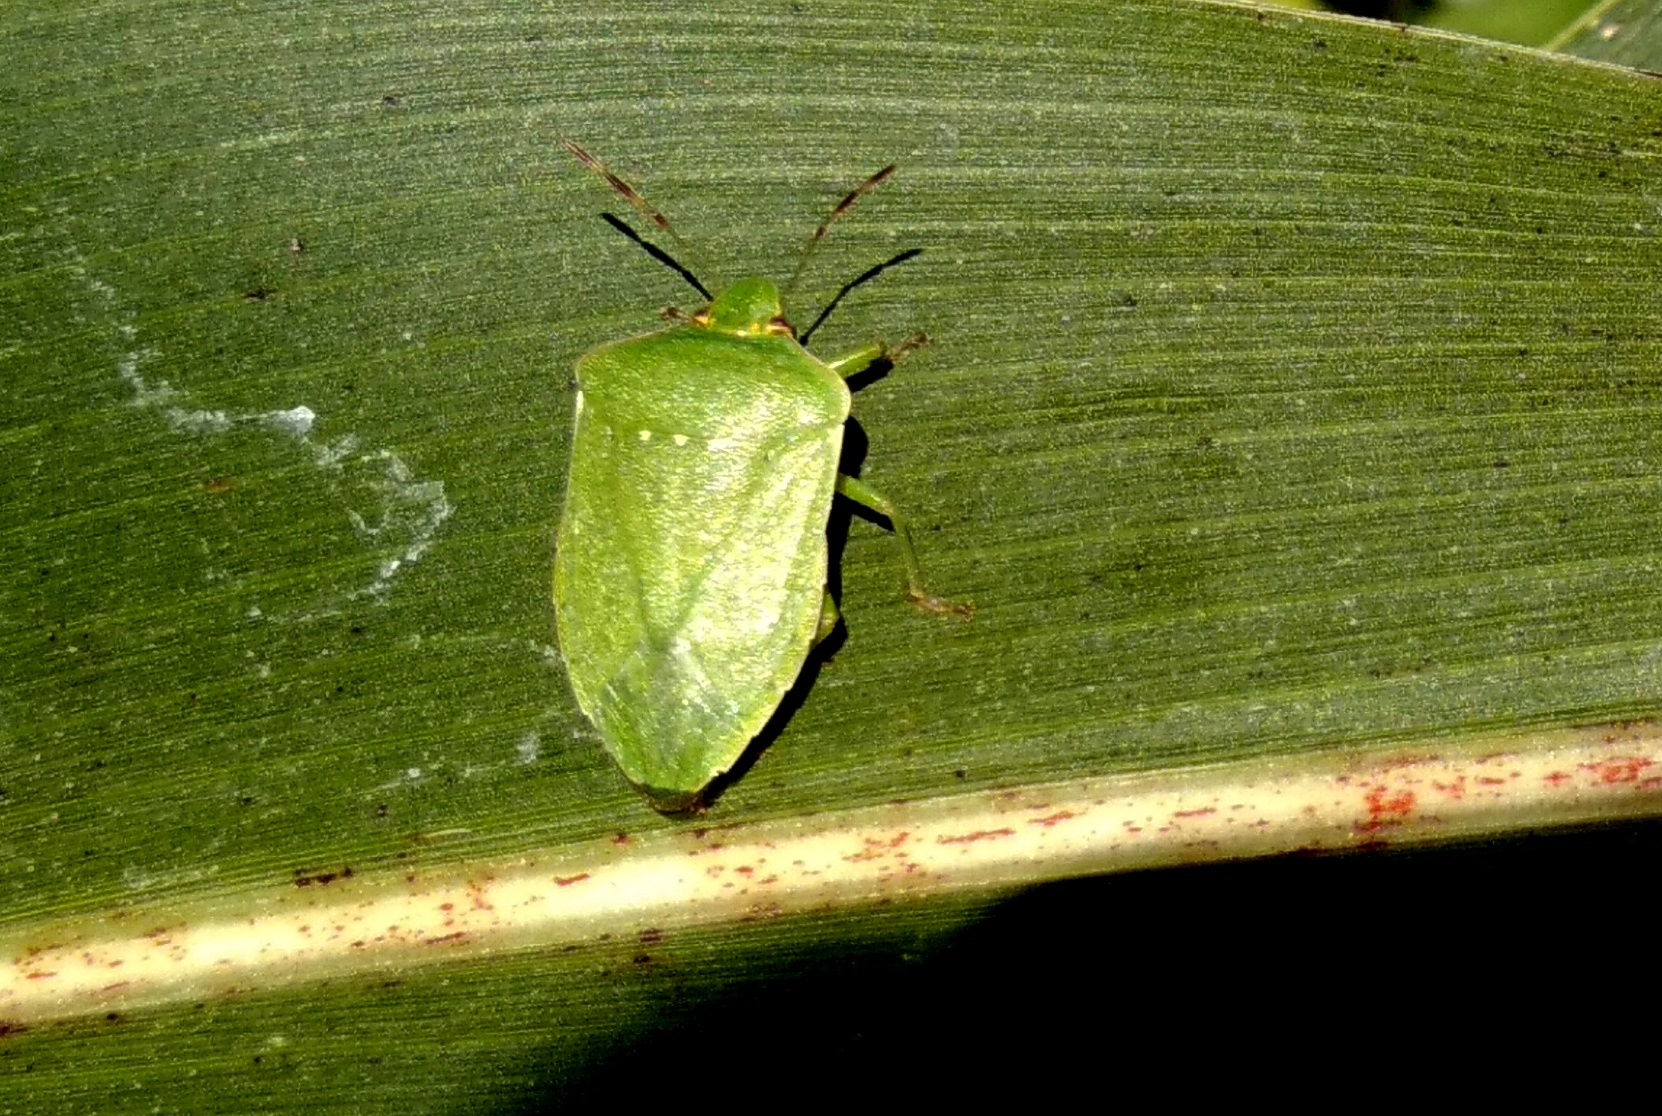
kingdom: Animalia
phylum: Arthropoda
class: Insecta
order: Hemiptera
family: Pentatomidae
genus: Nezara
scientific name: Nezara viridula
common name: Southern green stink bug
